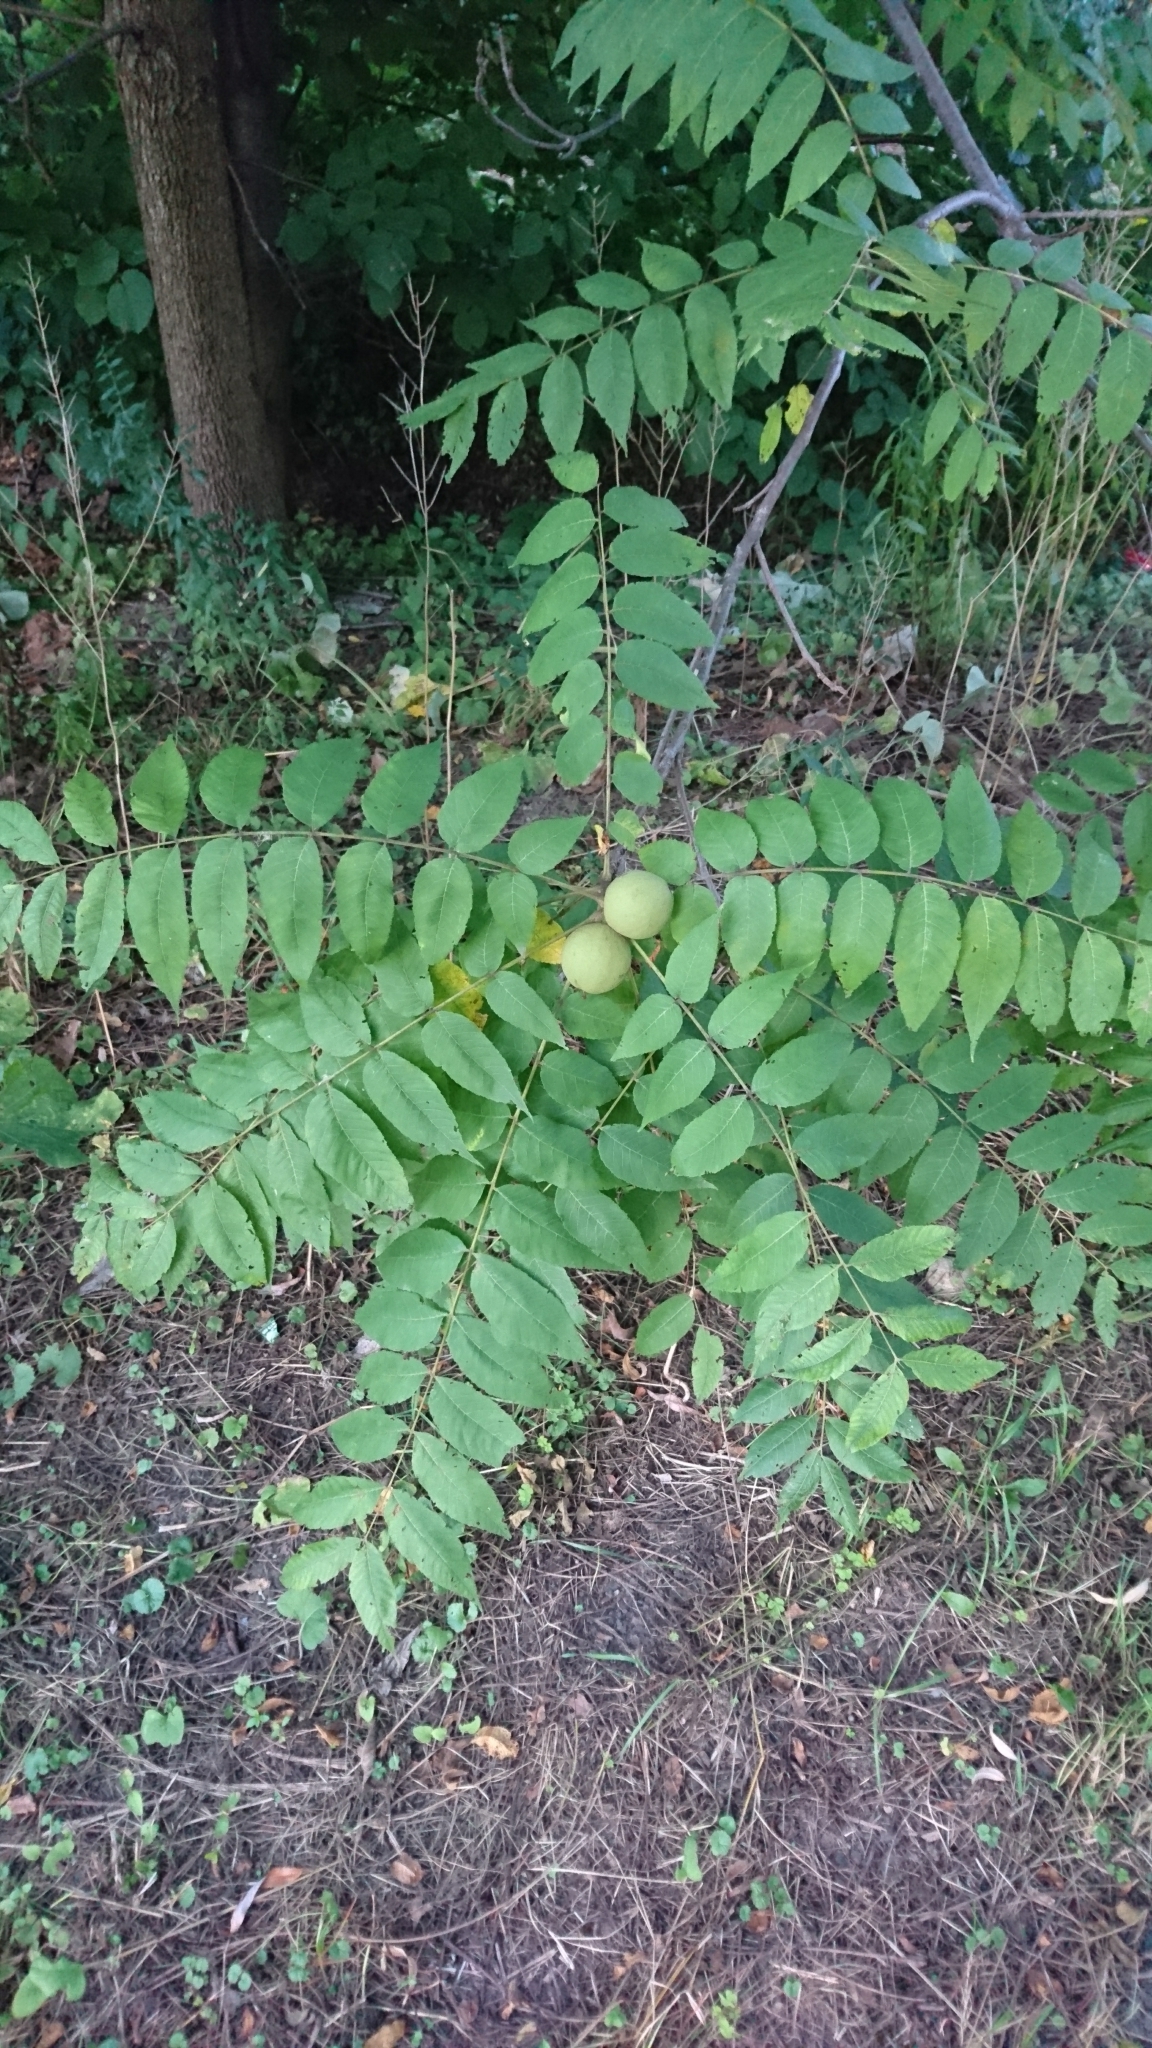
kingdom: Plantae
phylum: Tracheophyta
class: Magnoliopsida
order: Fagales
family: Juglandaceae
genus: Juglans
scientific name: Juglans nigra
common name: Black walnut
